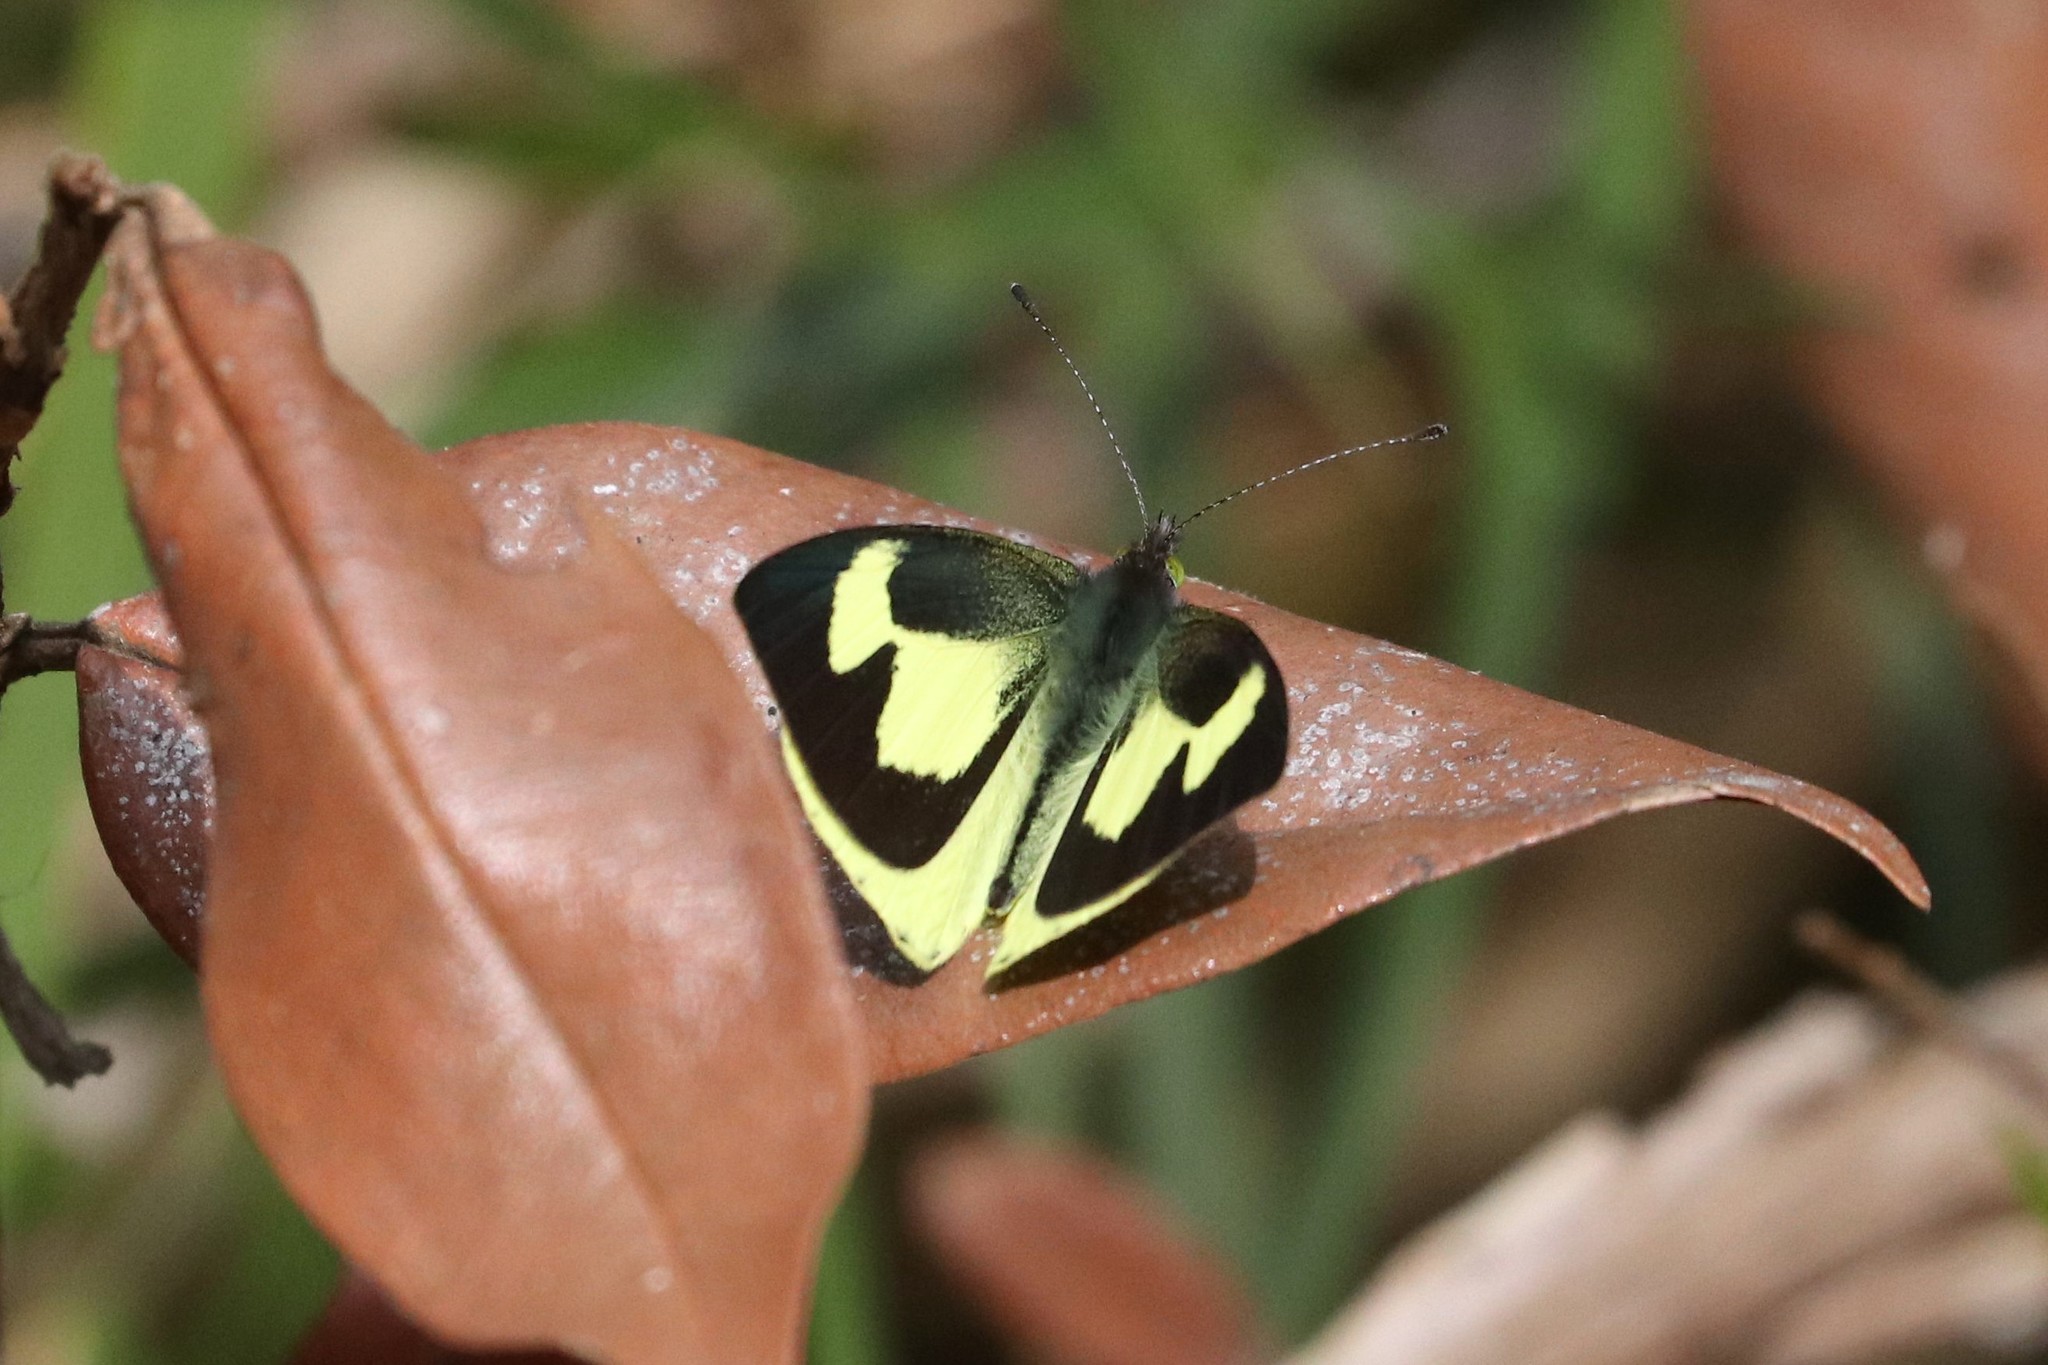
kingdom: Animalia
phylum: Arthropoda
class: Insecta
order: Lepidoptera
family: Pieridae
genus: Leptophobia
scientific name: Leptophobia eleone
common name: Silky wanderer
